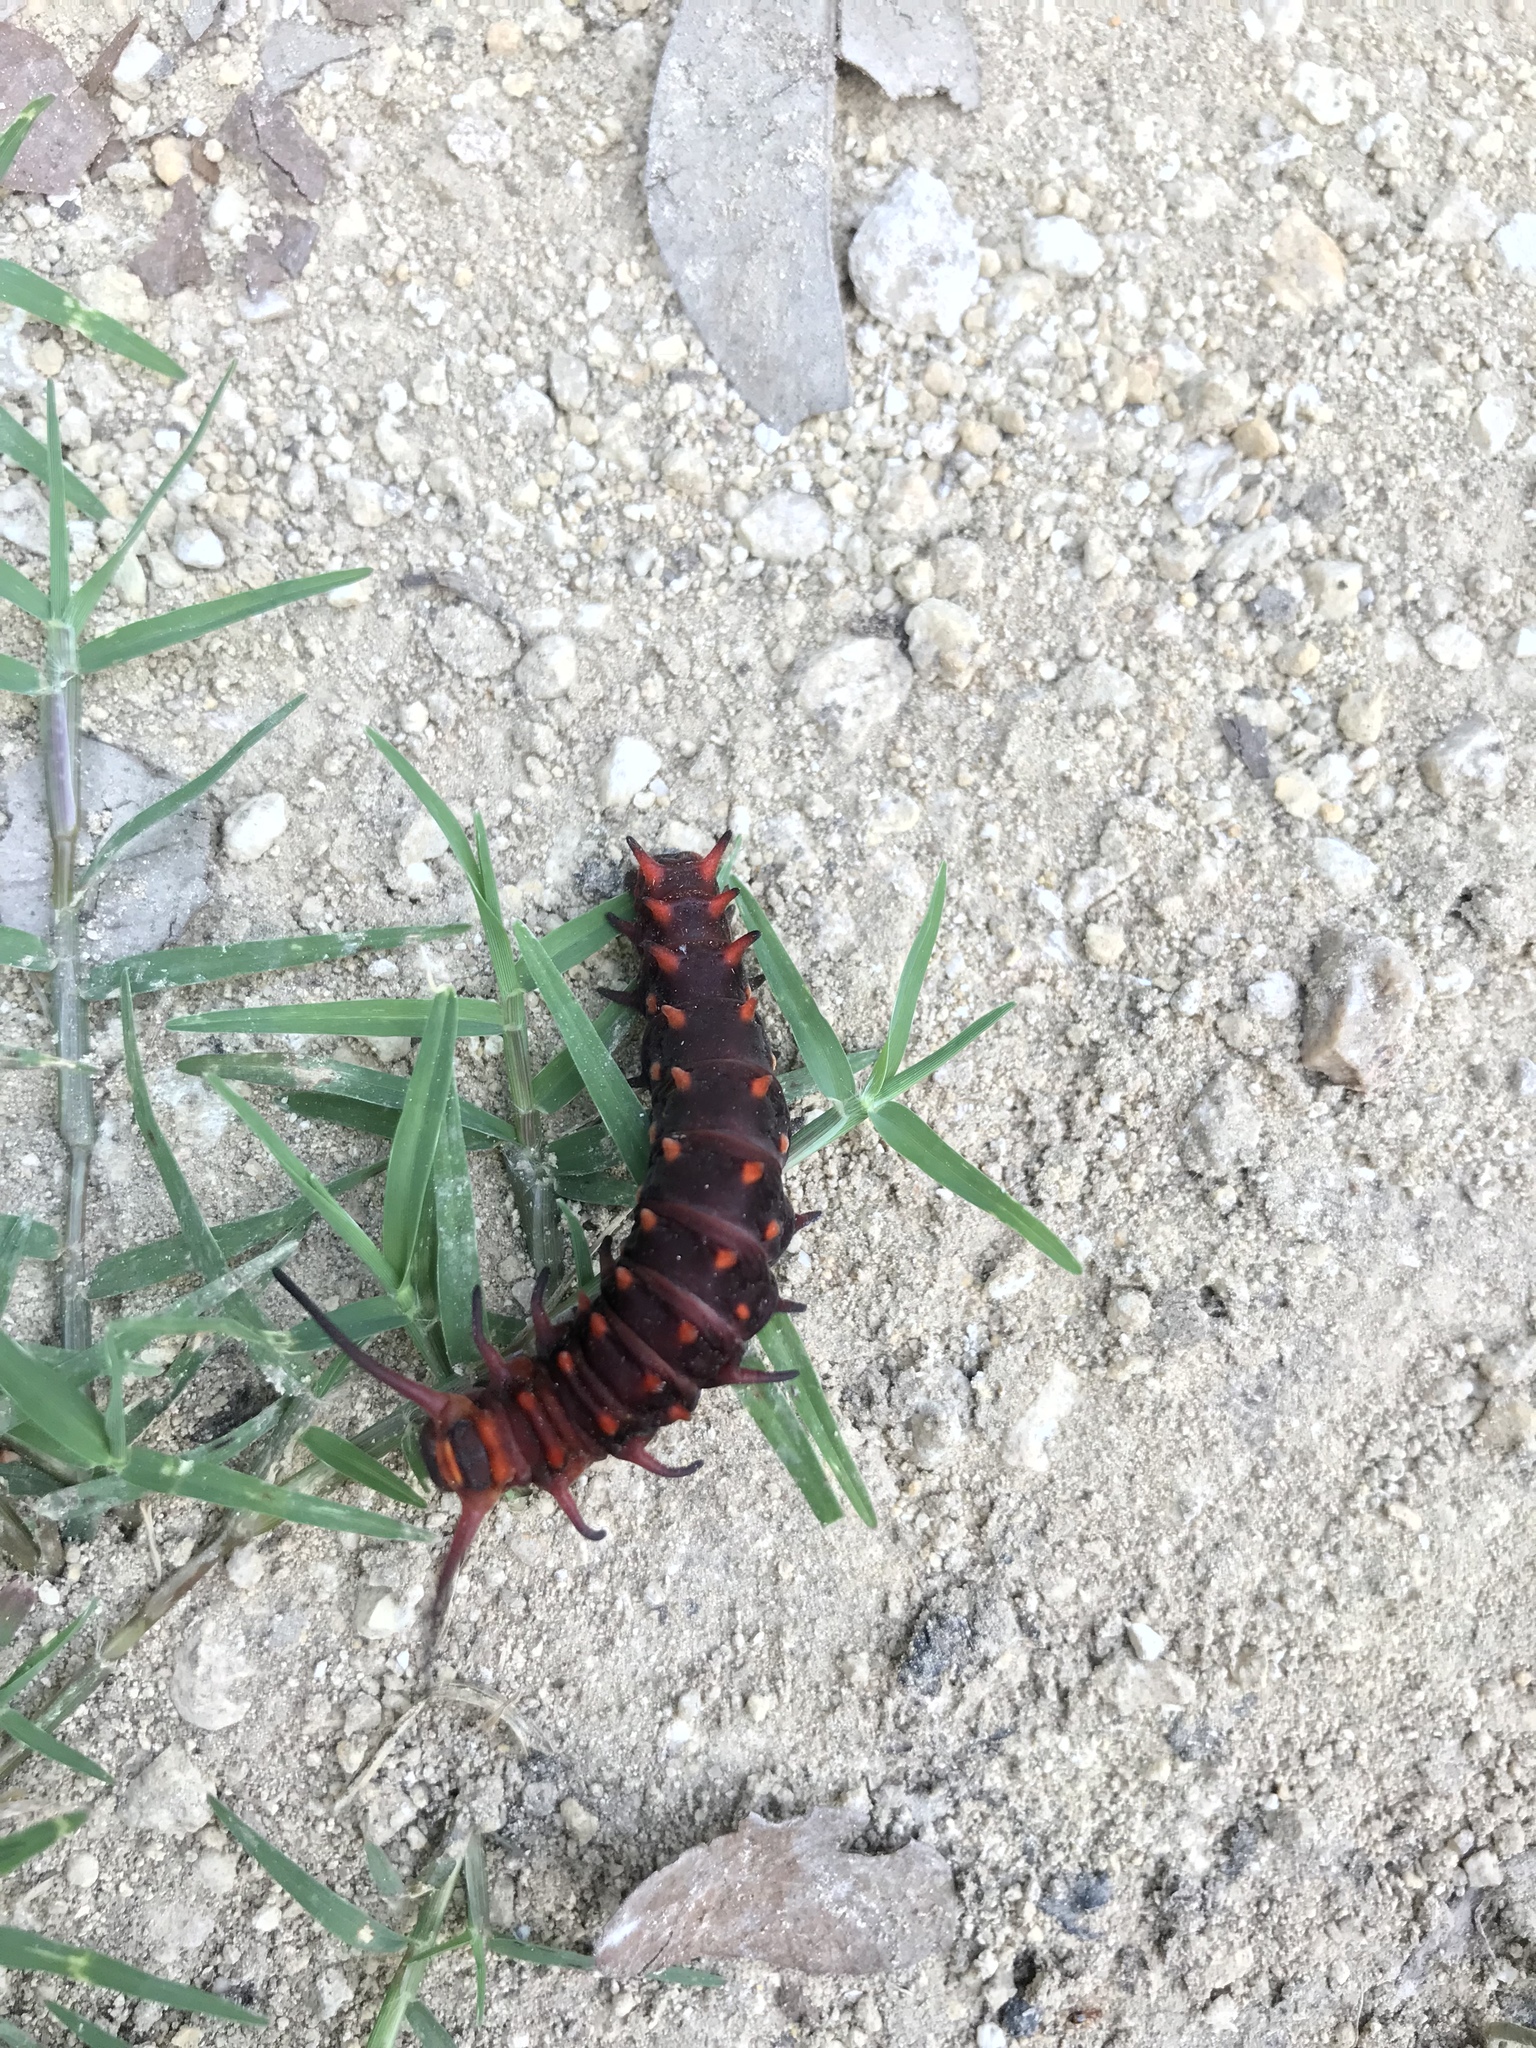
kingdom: Animalia
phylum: Arthropoda
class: Insecta
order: Lepidoptera
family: Papilionidae
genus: Battus
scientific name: Battus philenor
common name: Pipevine swallowtail
